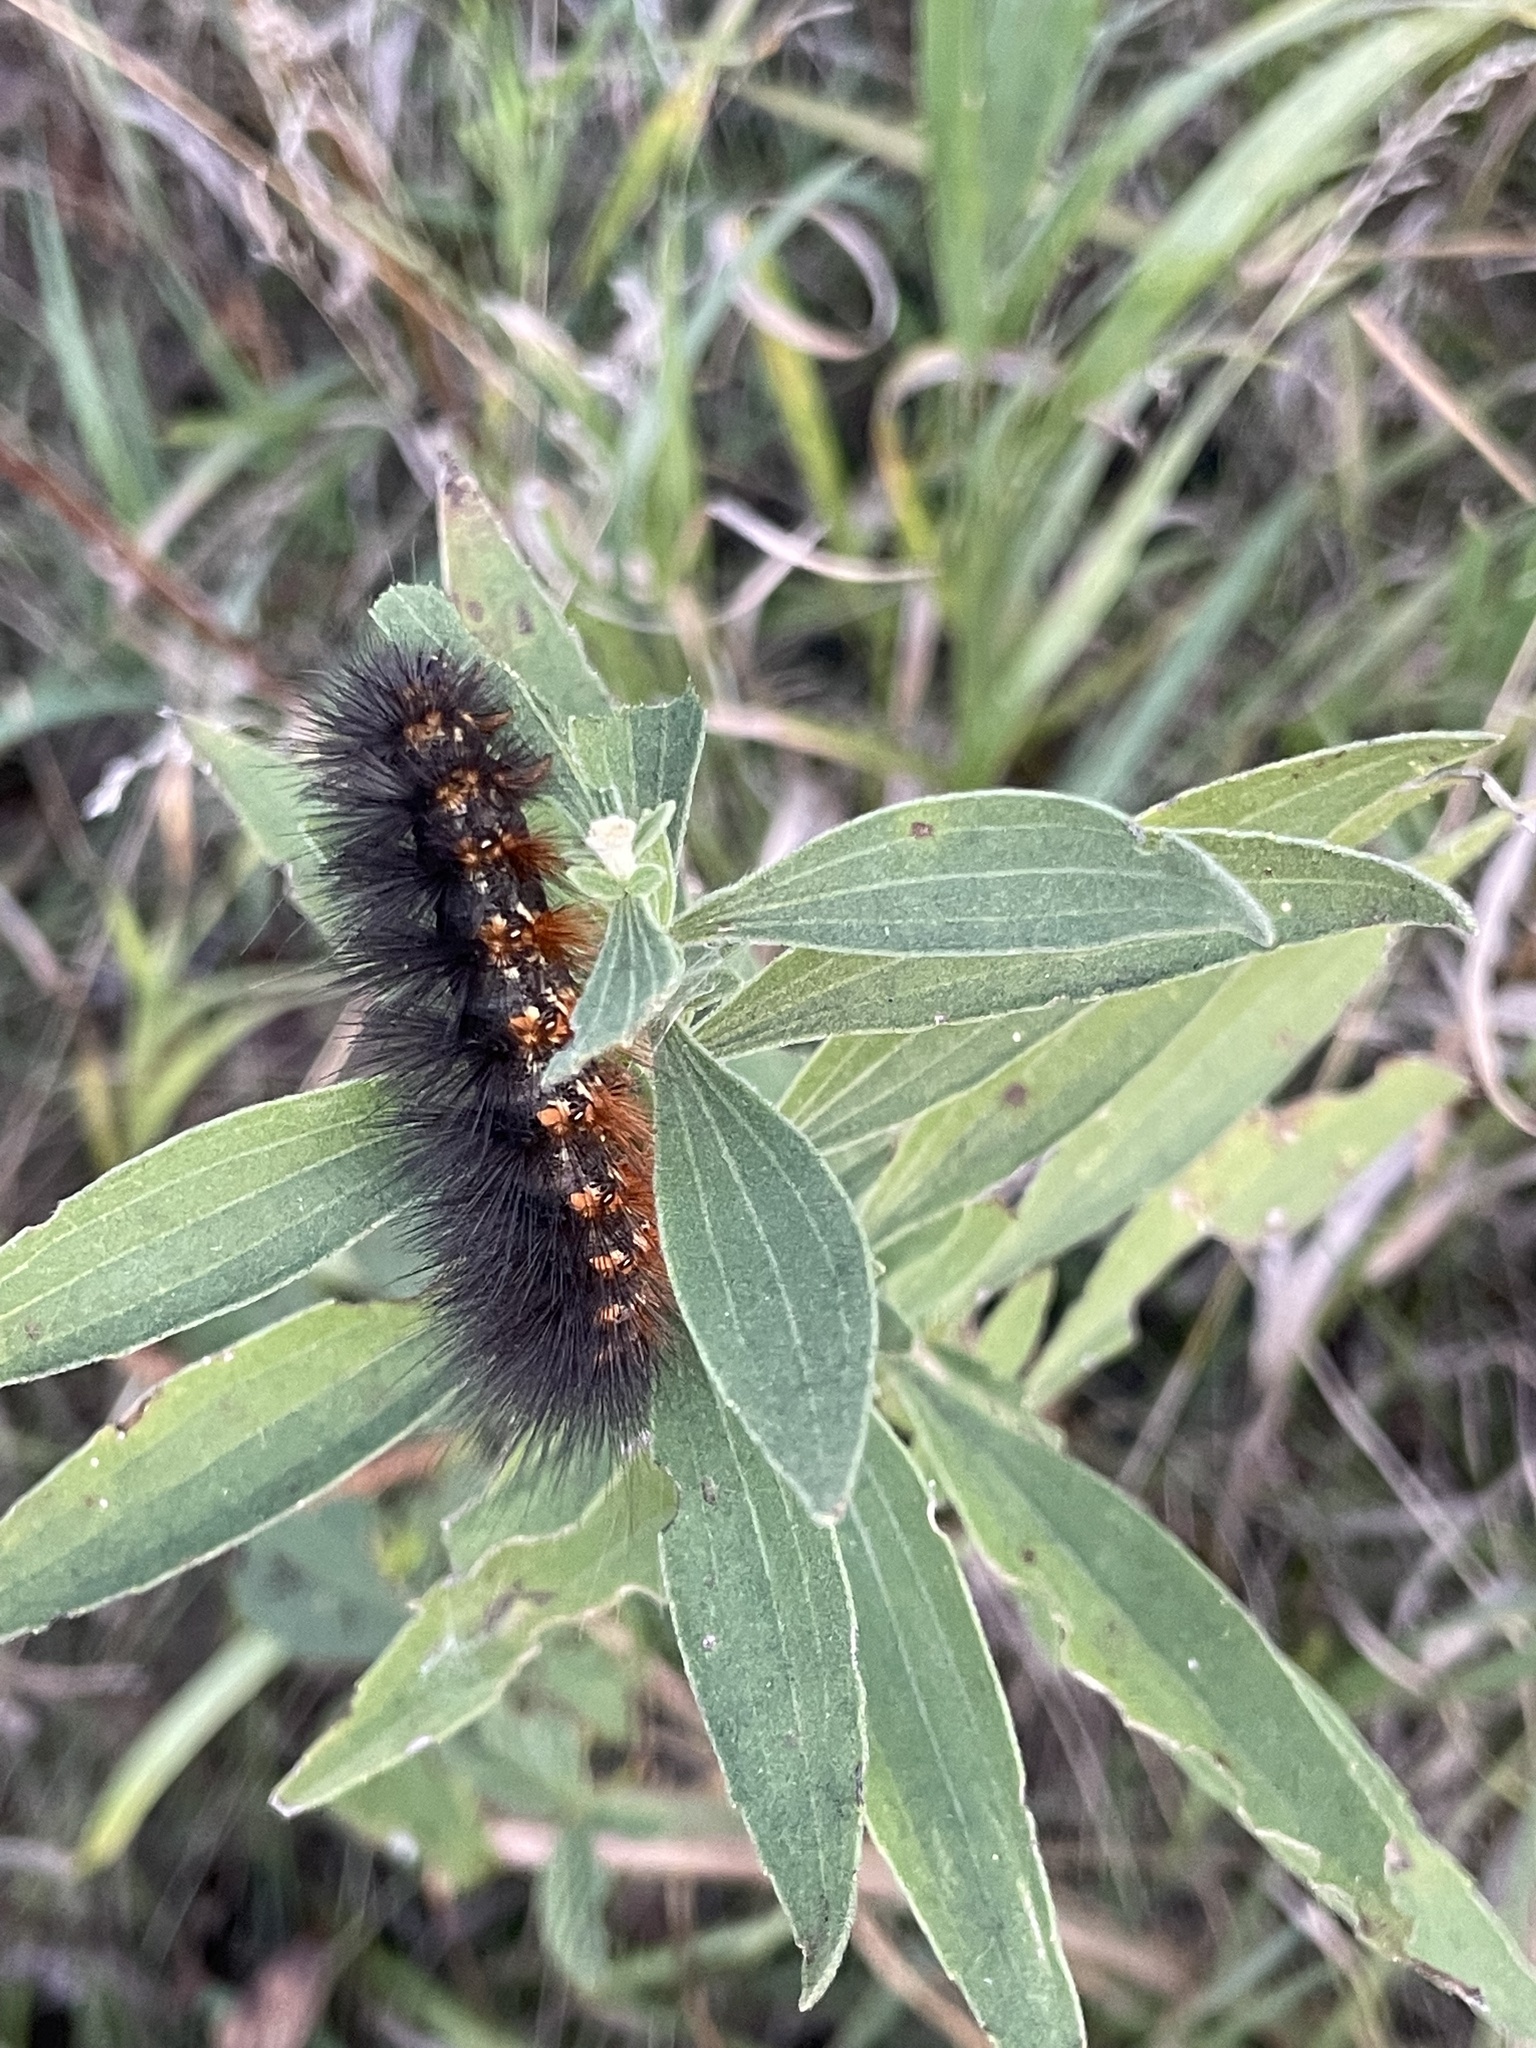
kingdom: Animalia
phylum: Arthropoda
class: Insecta
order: Lepidoptera
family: Erebidae
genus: Estigmene
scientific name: Estigmene acrea
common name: Salt marsh moth
